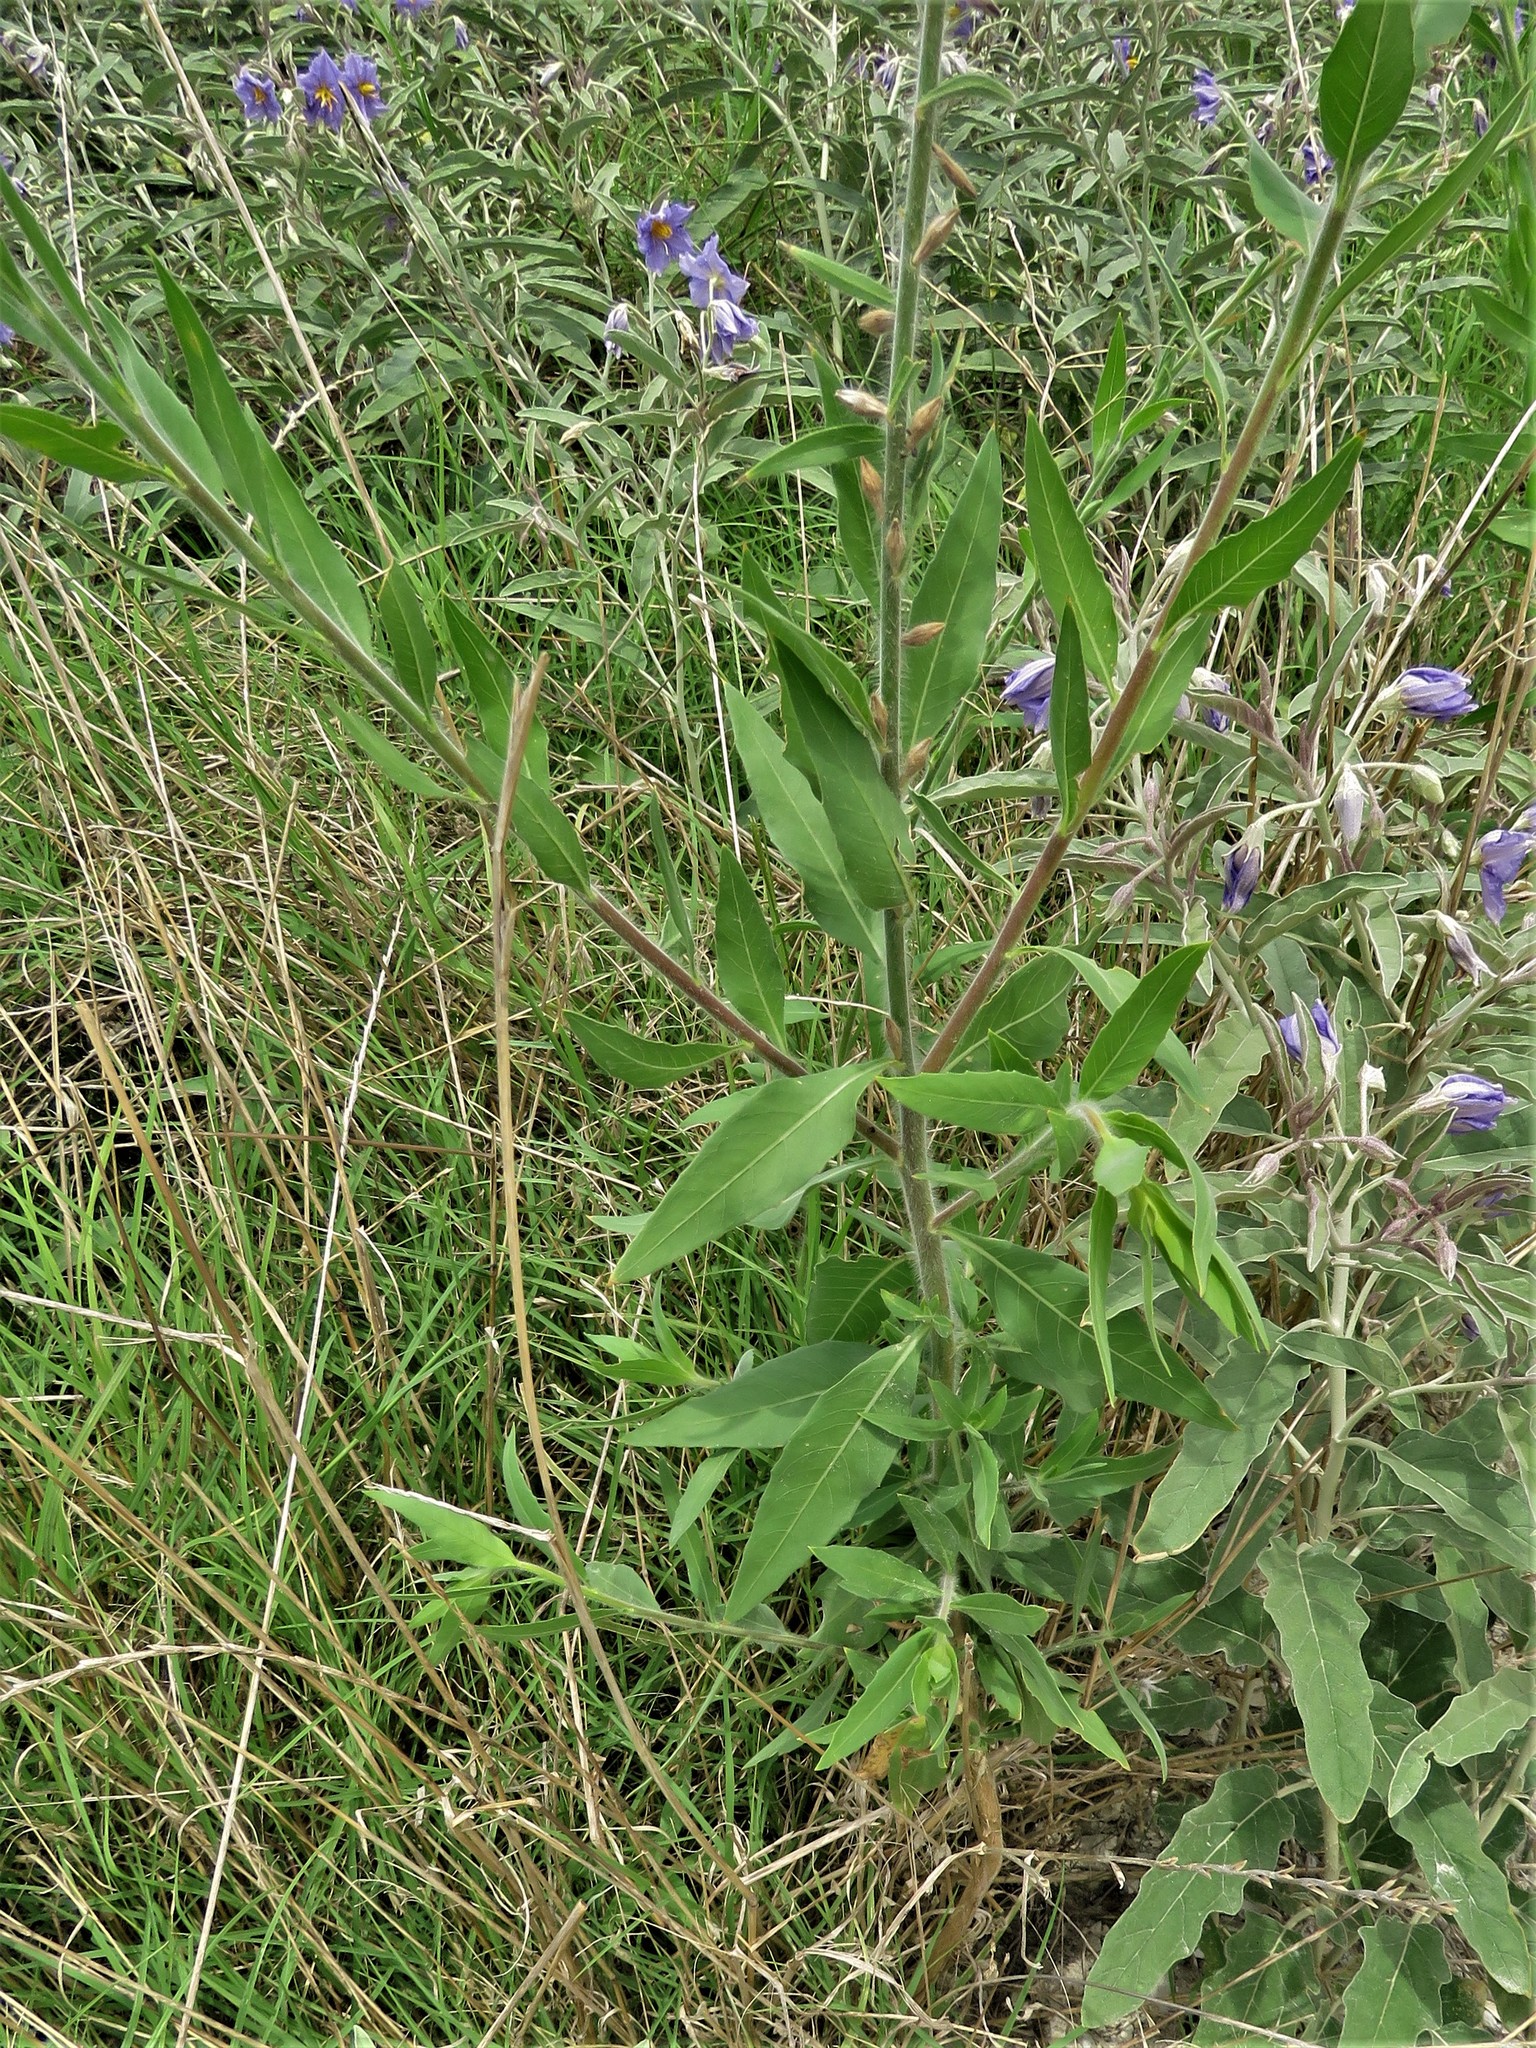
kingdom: Plantae
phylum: Tracheophyta
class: Magnoliopsida
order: Myrtales
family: Onagraceae
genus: Oenothera
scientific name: Oenothera curtiflora
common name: Velvetweed
